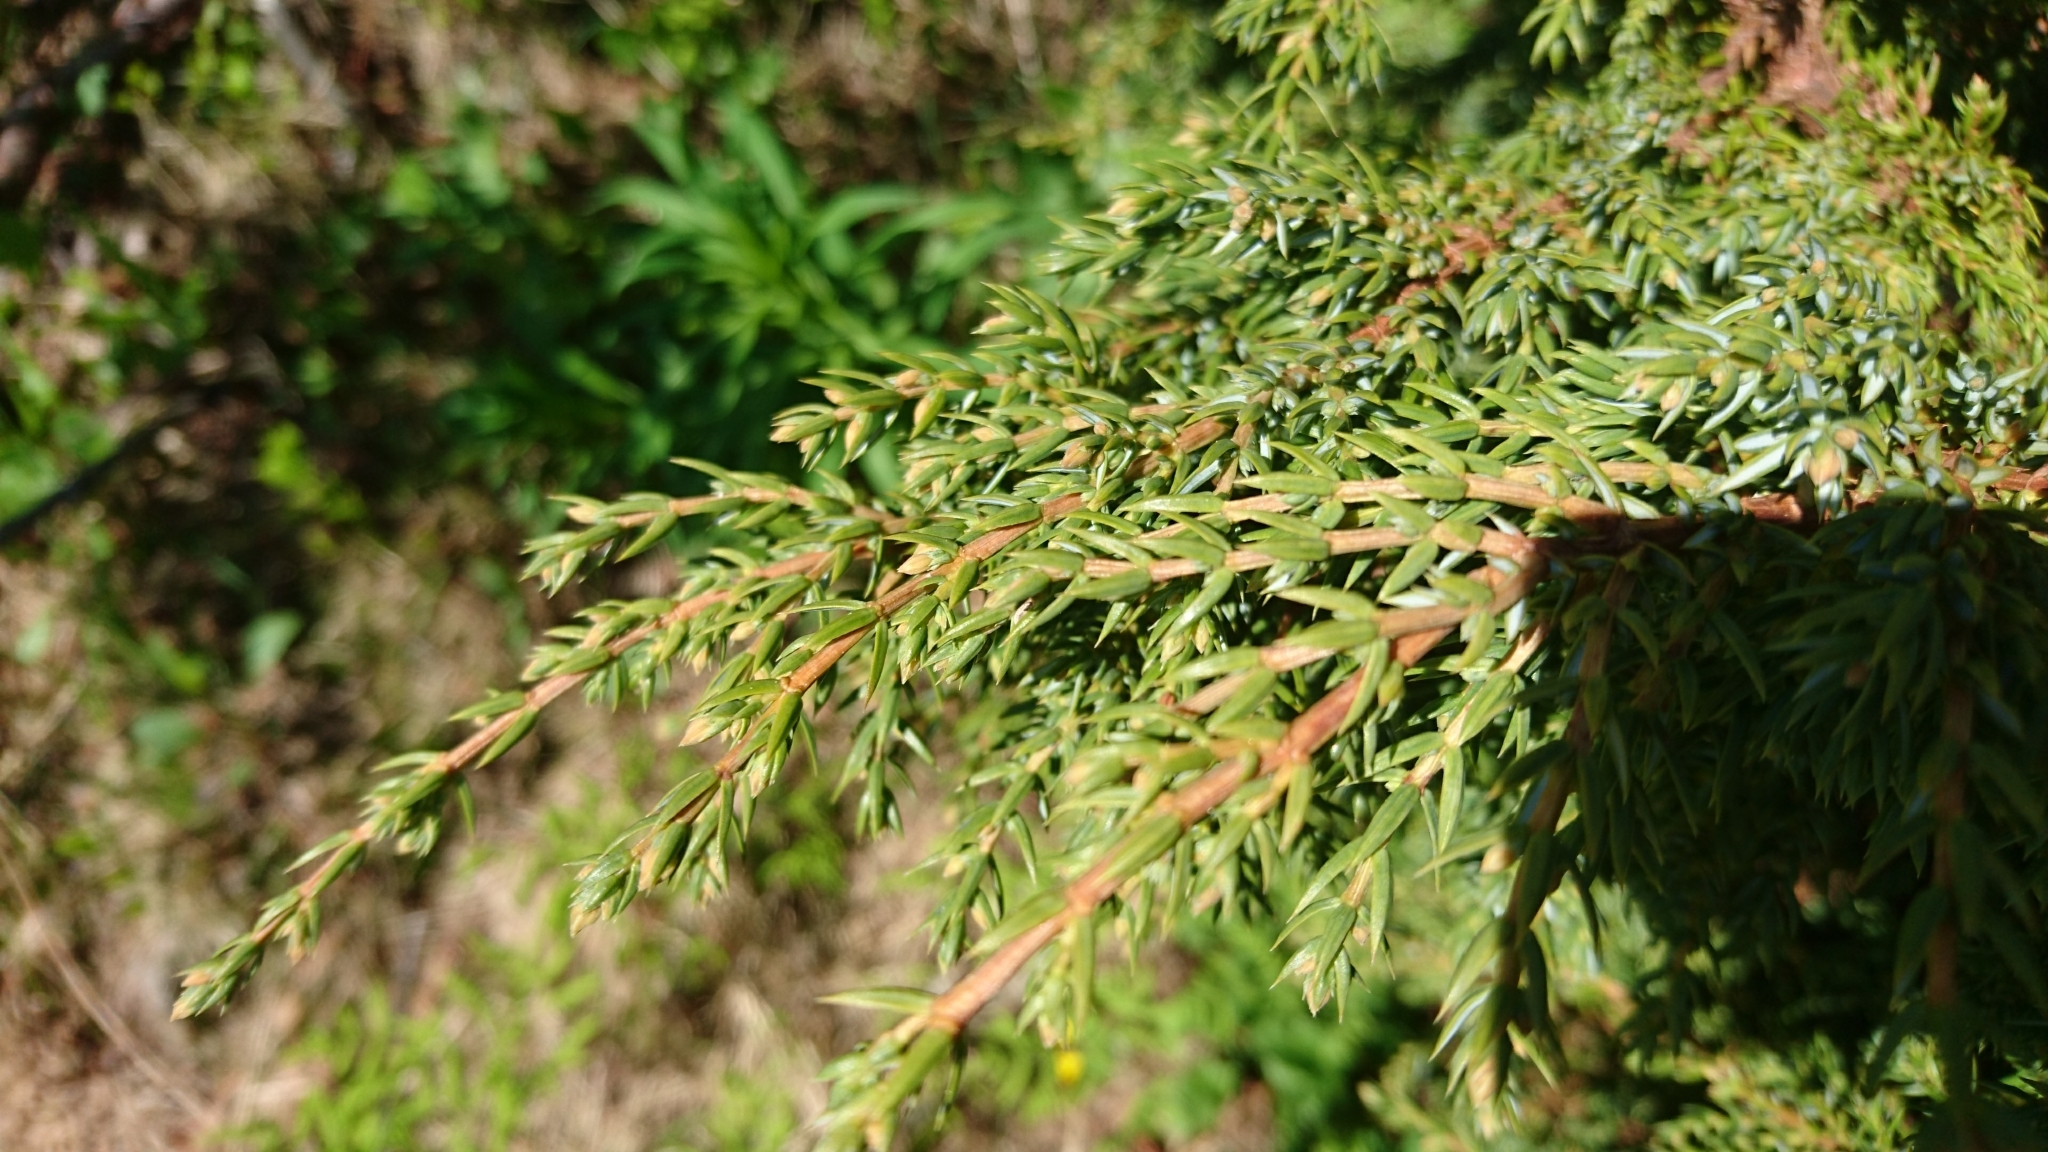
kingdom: Plantae
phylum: Tracheophyta
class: Pinopsida
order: Pinales
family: Cupressaceae
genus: Juniperus
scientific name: Juniperus communis
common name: Common juniper
